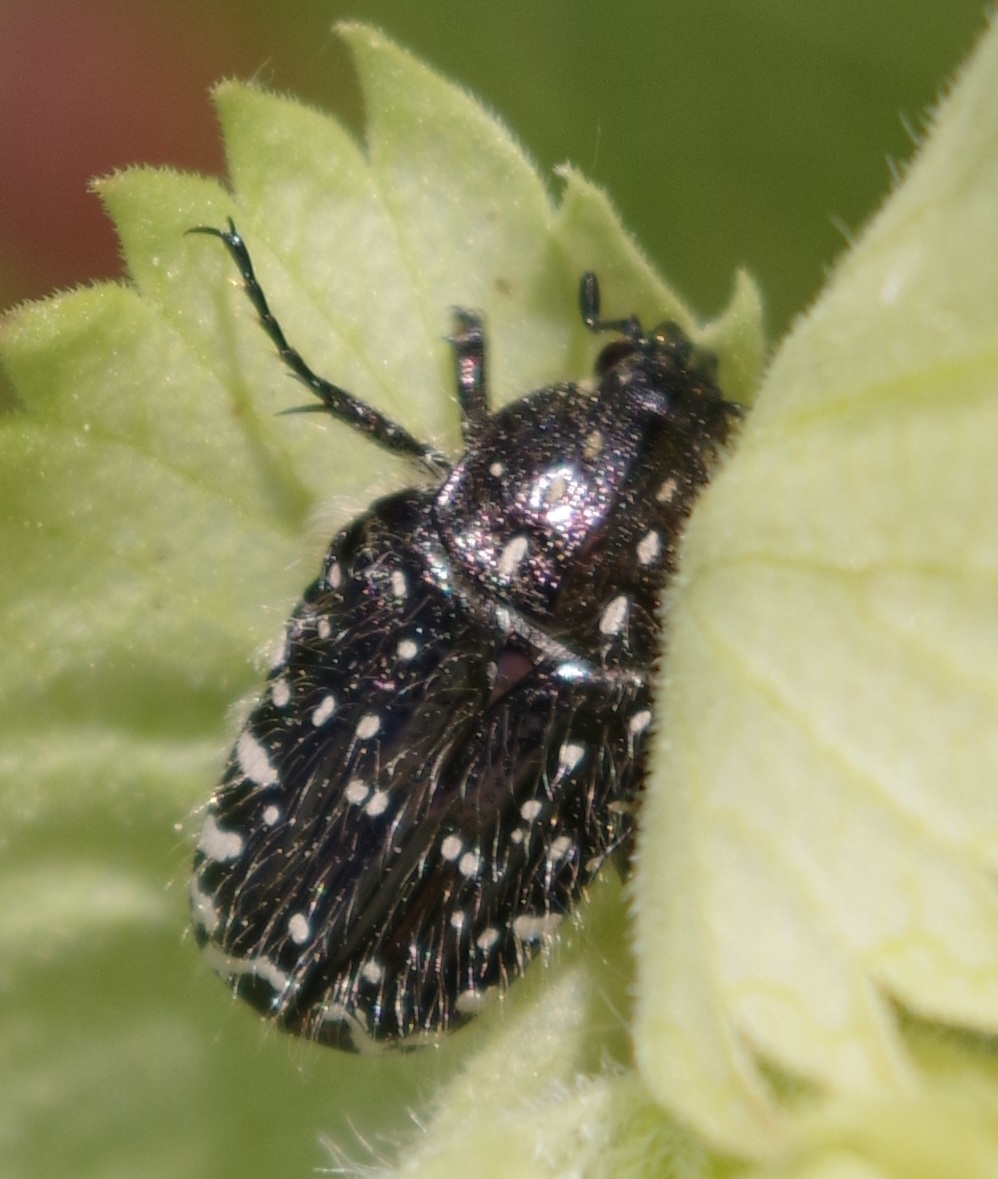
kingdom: Animalia
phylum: Arthropoda
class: Insecta
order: Coleoptera
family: Scarabaeidae
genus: Oxythyrea
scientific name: Oxythyrea funesta
